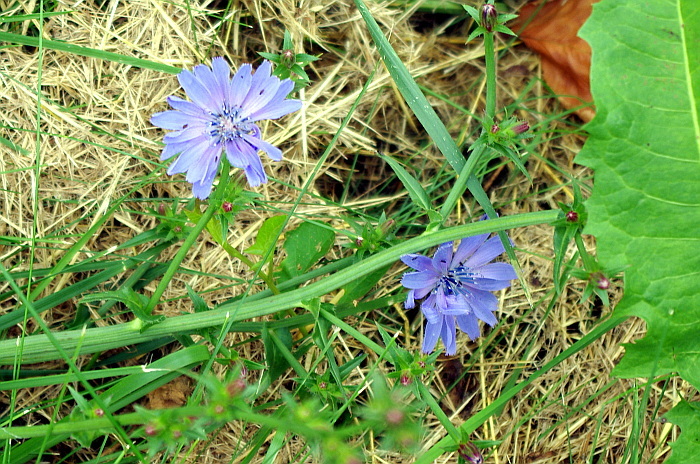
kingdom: Plantae
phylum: Tracheophyta
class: Magnoliopsida
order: Asterales
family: Asteraceae
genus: Cichorium
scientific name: Cichorium intybus
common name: Chicory
